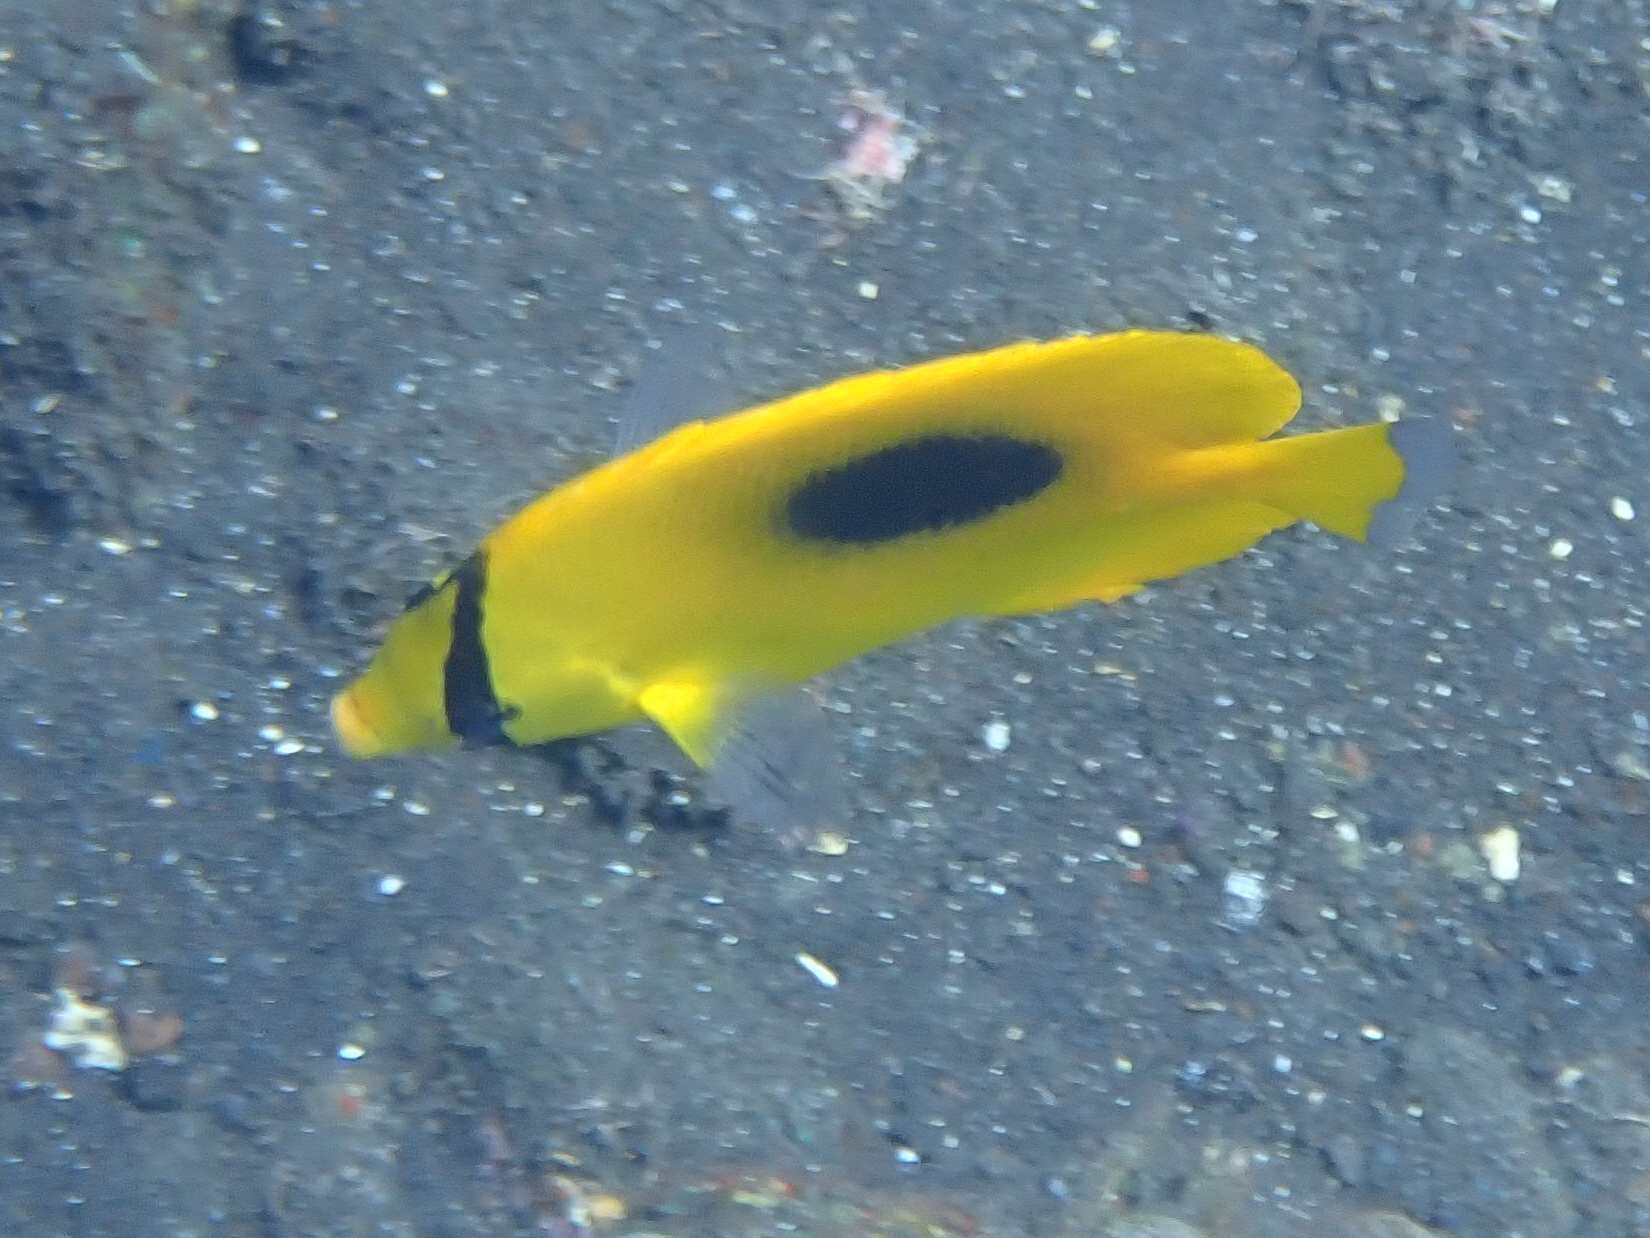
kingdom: Animalia
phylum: Chordata
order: Perciformes
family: Chaetodontidae
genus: Chaetodon
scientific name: Chaetodon speculum
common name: Mirror butterflyfish
